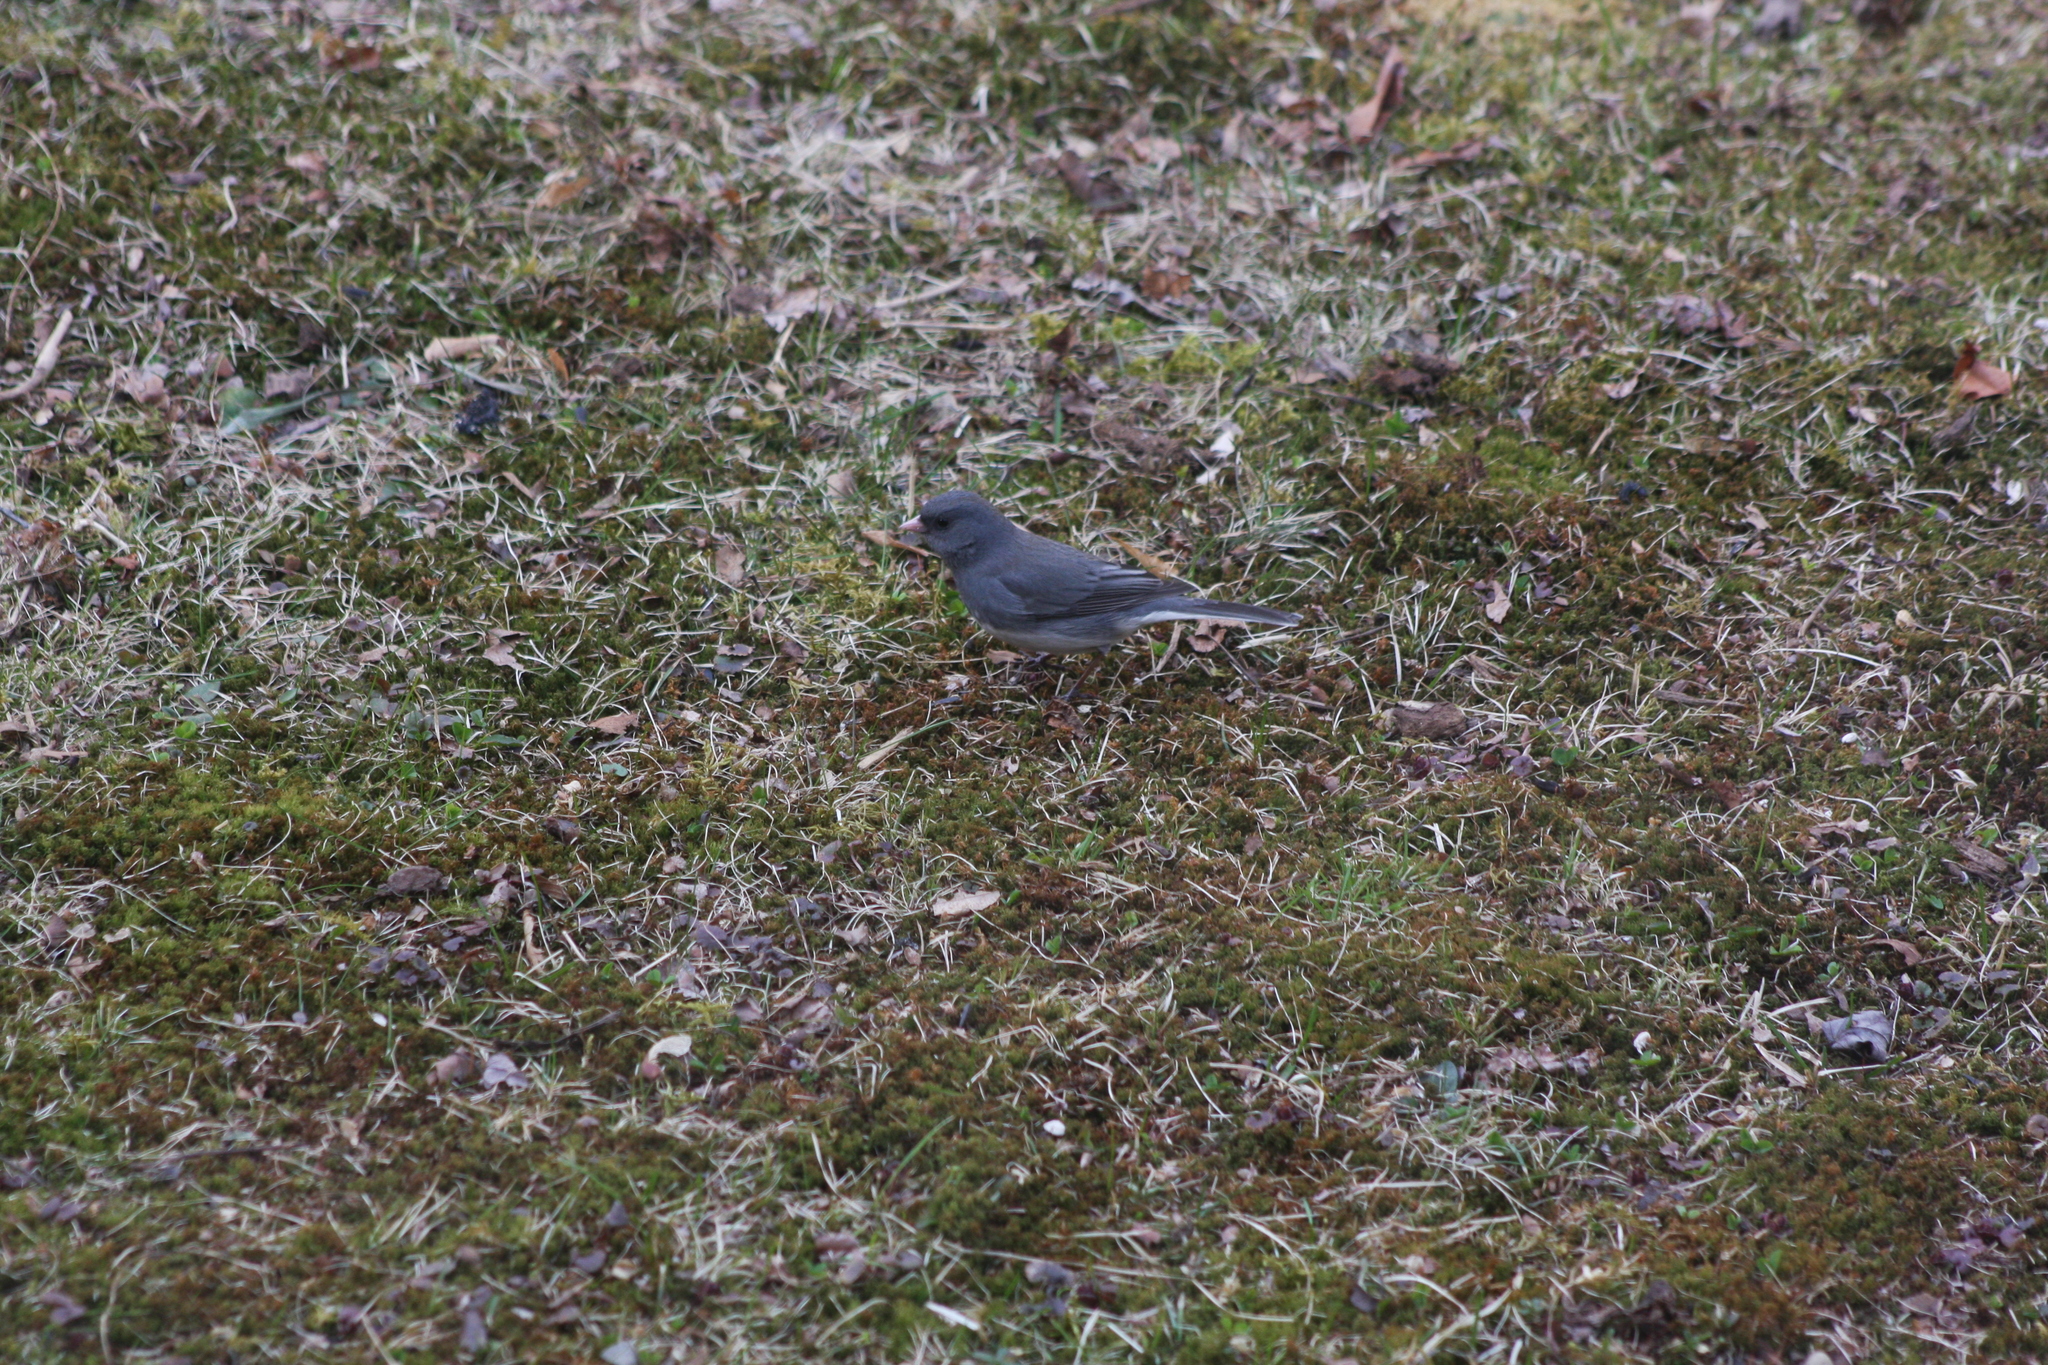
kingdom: Animalia
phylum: Chordata
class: Aves
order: Passeriformes
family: Passerellidae
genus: Junco
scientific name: Junco hyemalis
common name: Dark-eyed junco
